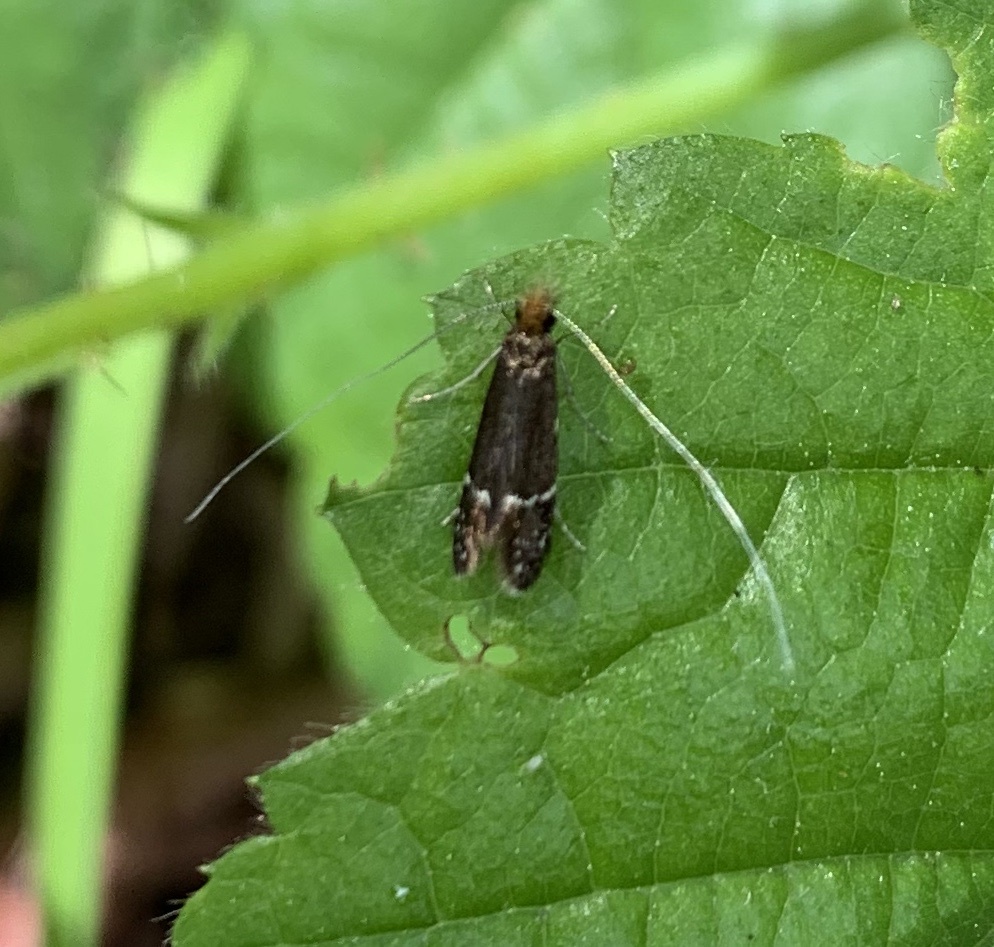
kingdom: Animalia
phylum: Arthropoda
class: Insecta
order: Lepidoptera
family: Adelidae
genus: Adela
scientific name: Adela septentrionella
